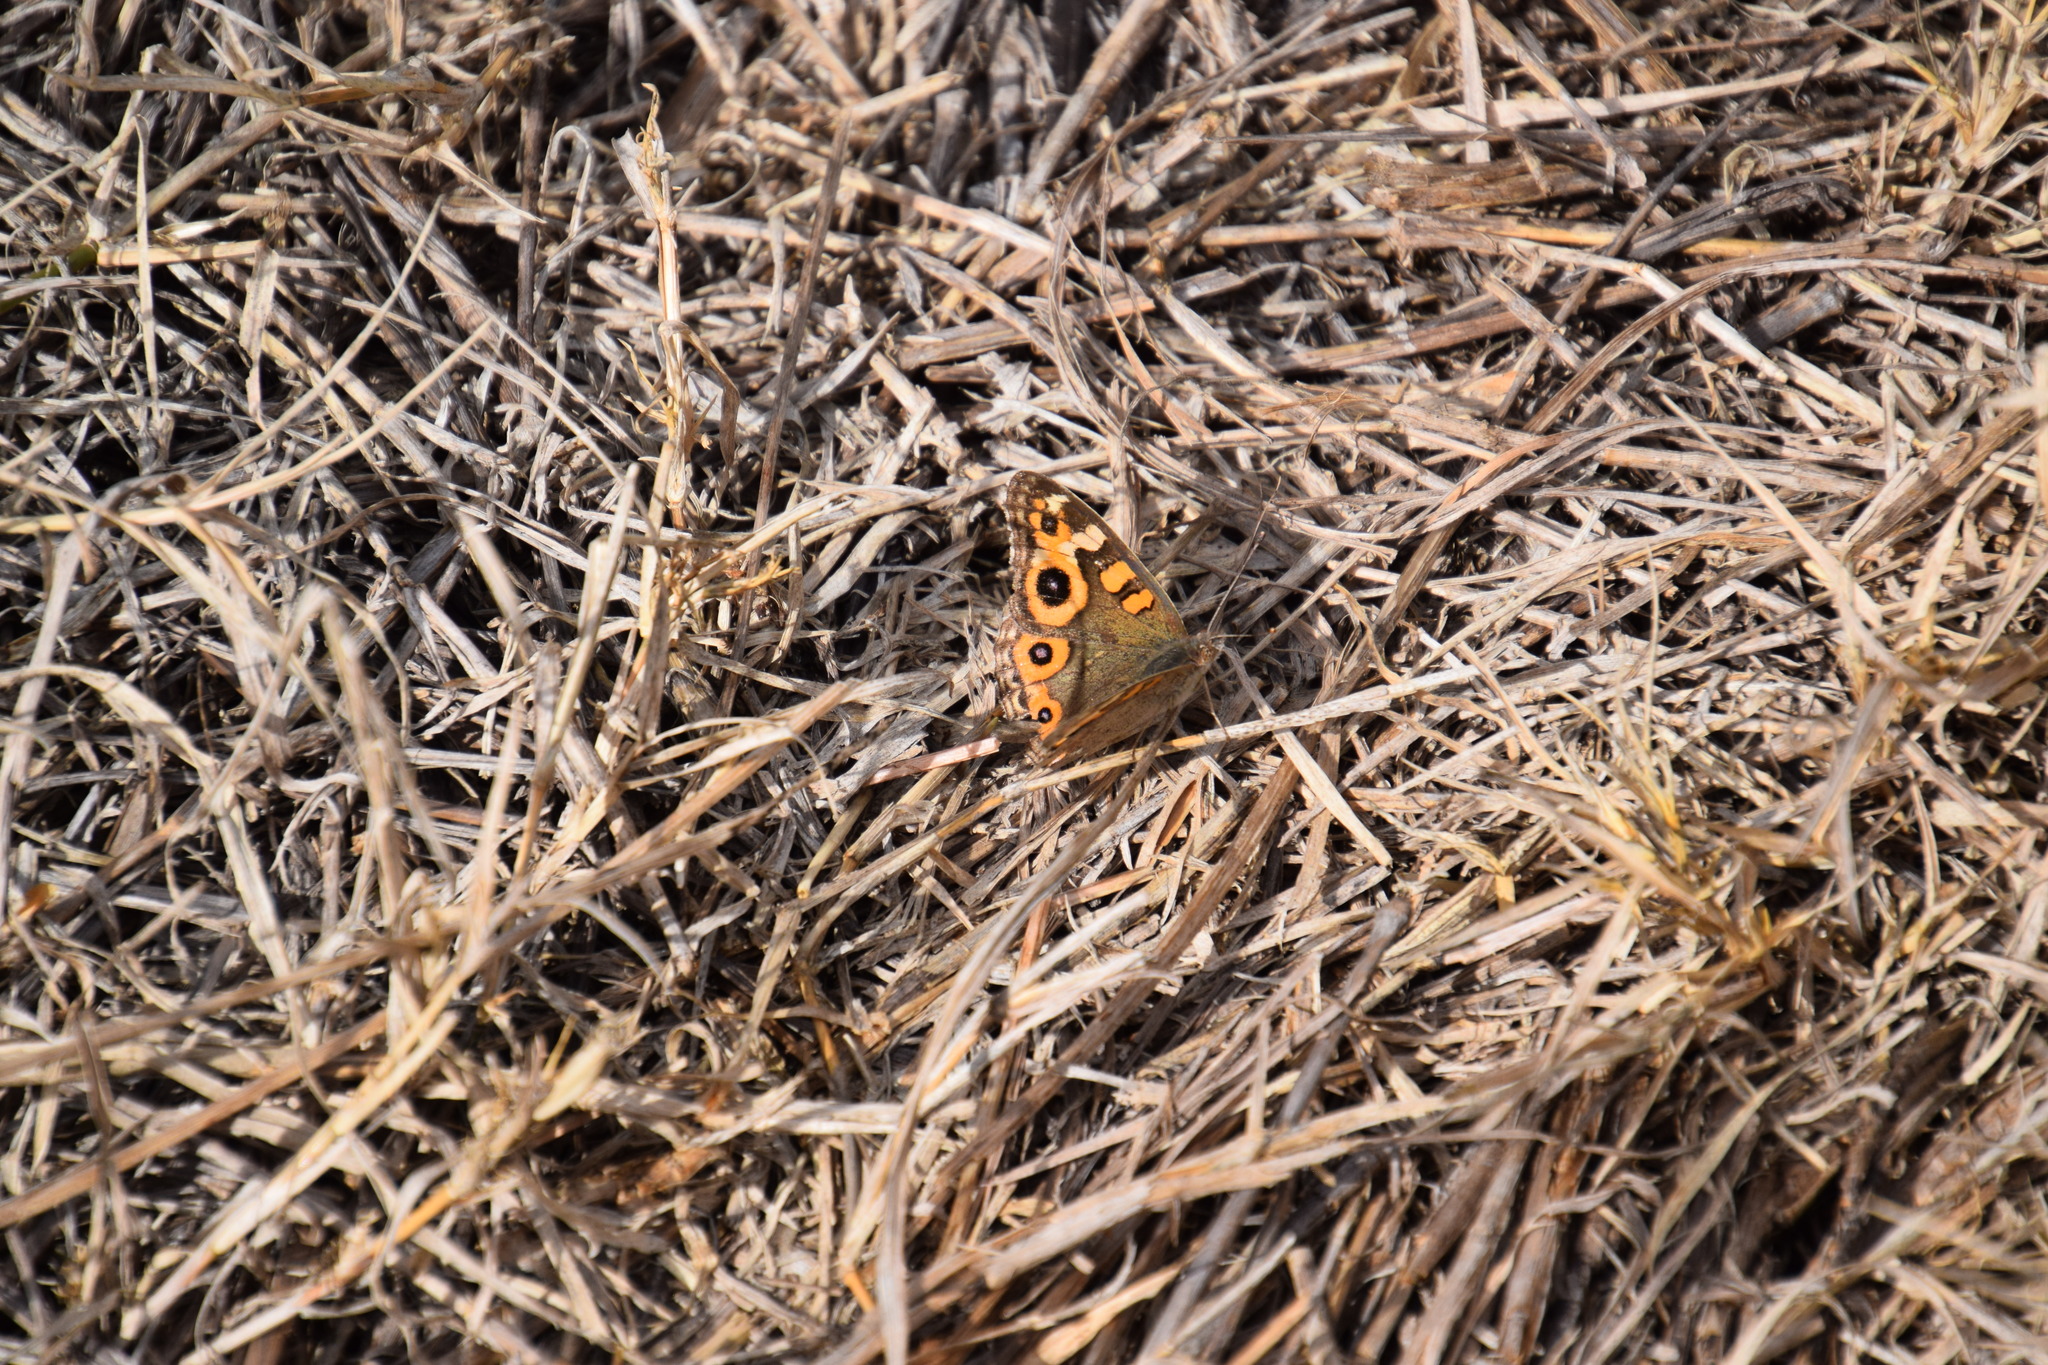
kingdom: Animalia
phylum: Arthropoda
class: Insecta
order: Lepidoptera
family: Nymphalidae
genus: Junonia
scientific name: Junonia villida
